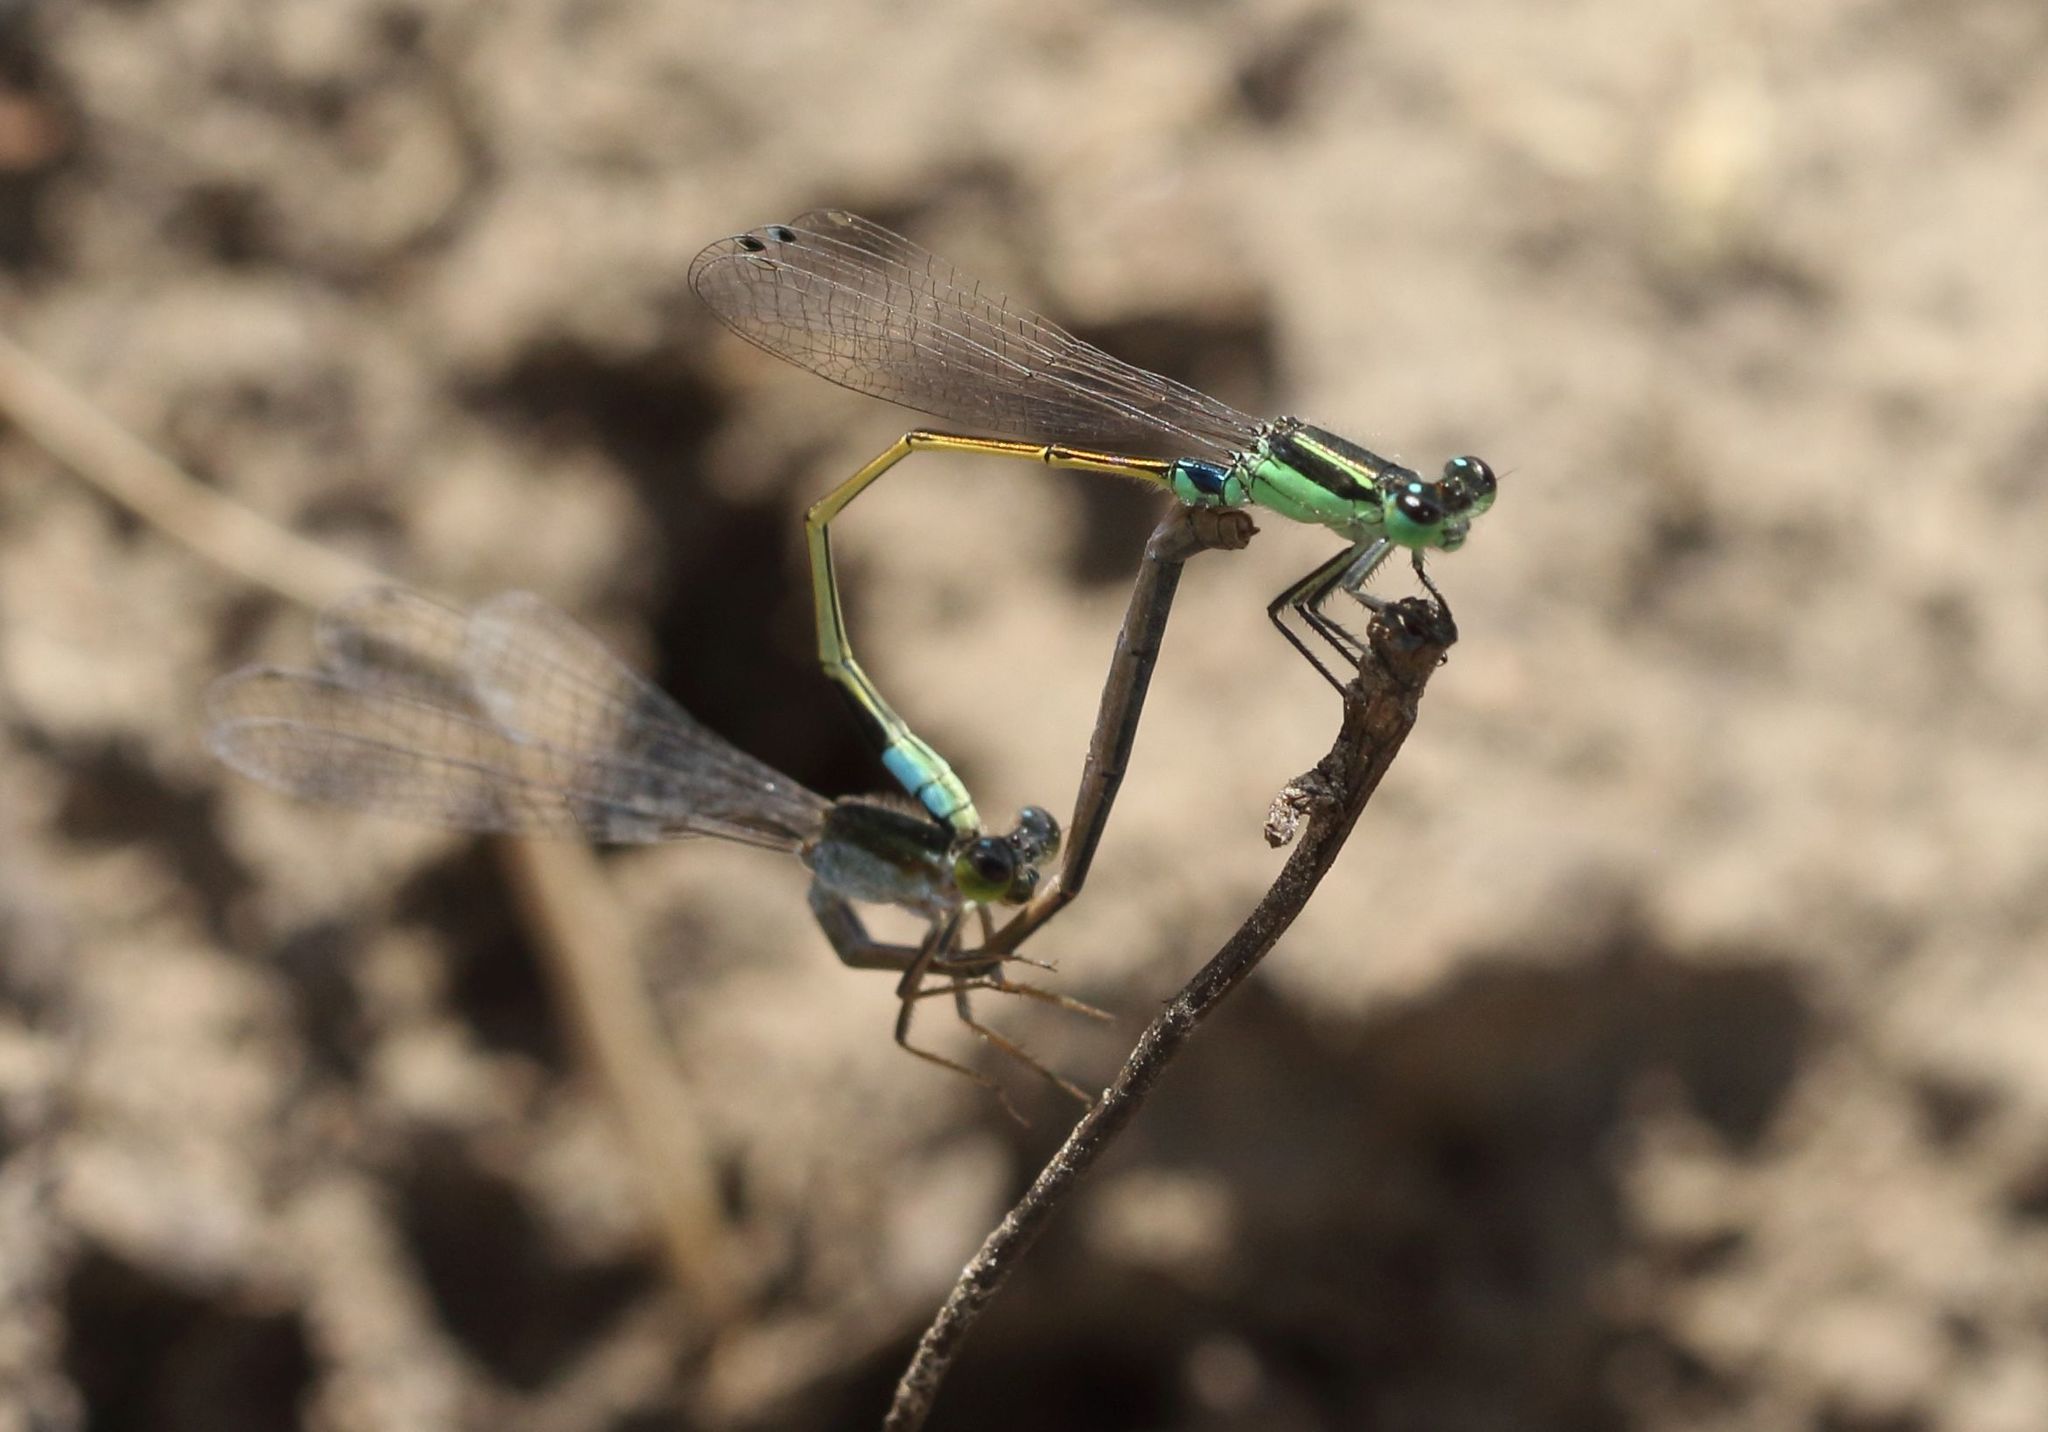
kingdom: Animalia
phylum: Arthropoda
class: Insecta
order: Odonata
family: Coenagrionidae
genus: Ischnura
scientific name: Ischnura senegalensis
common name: Tropical bluetail
